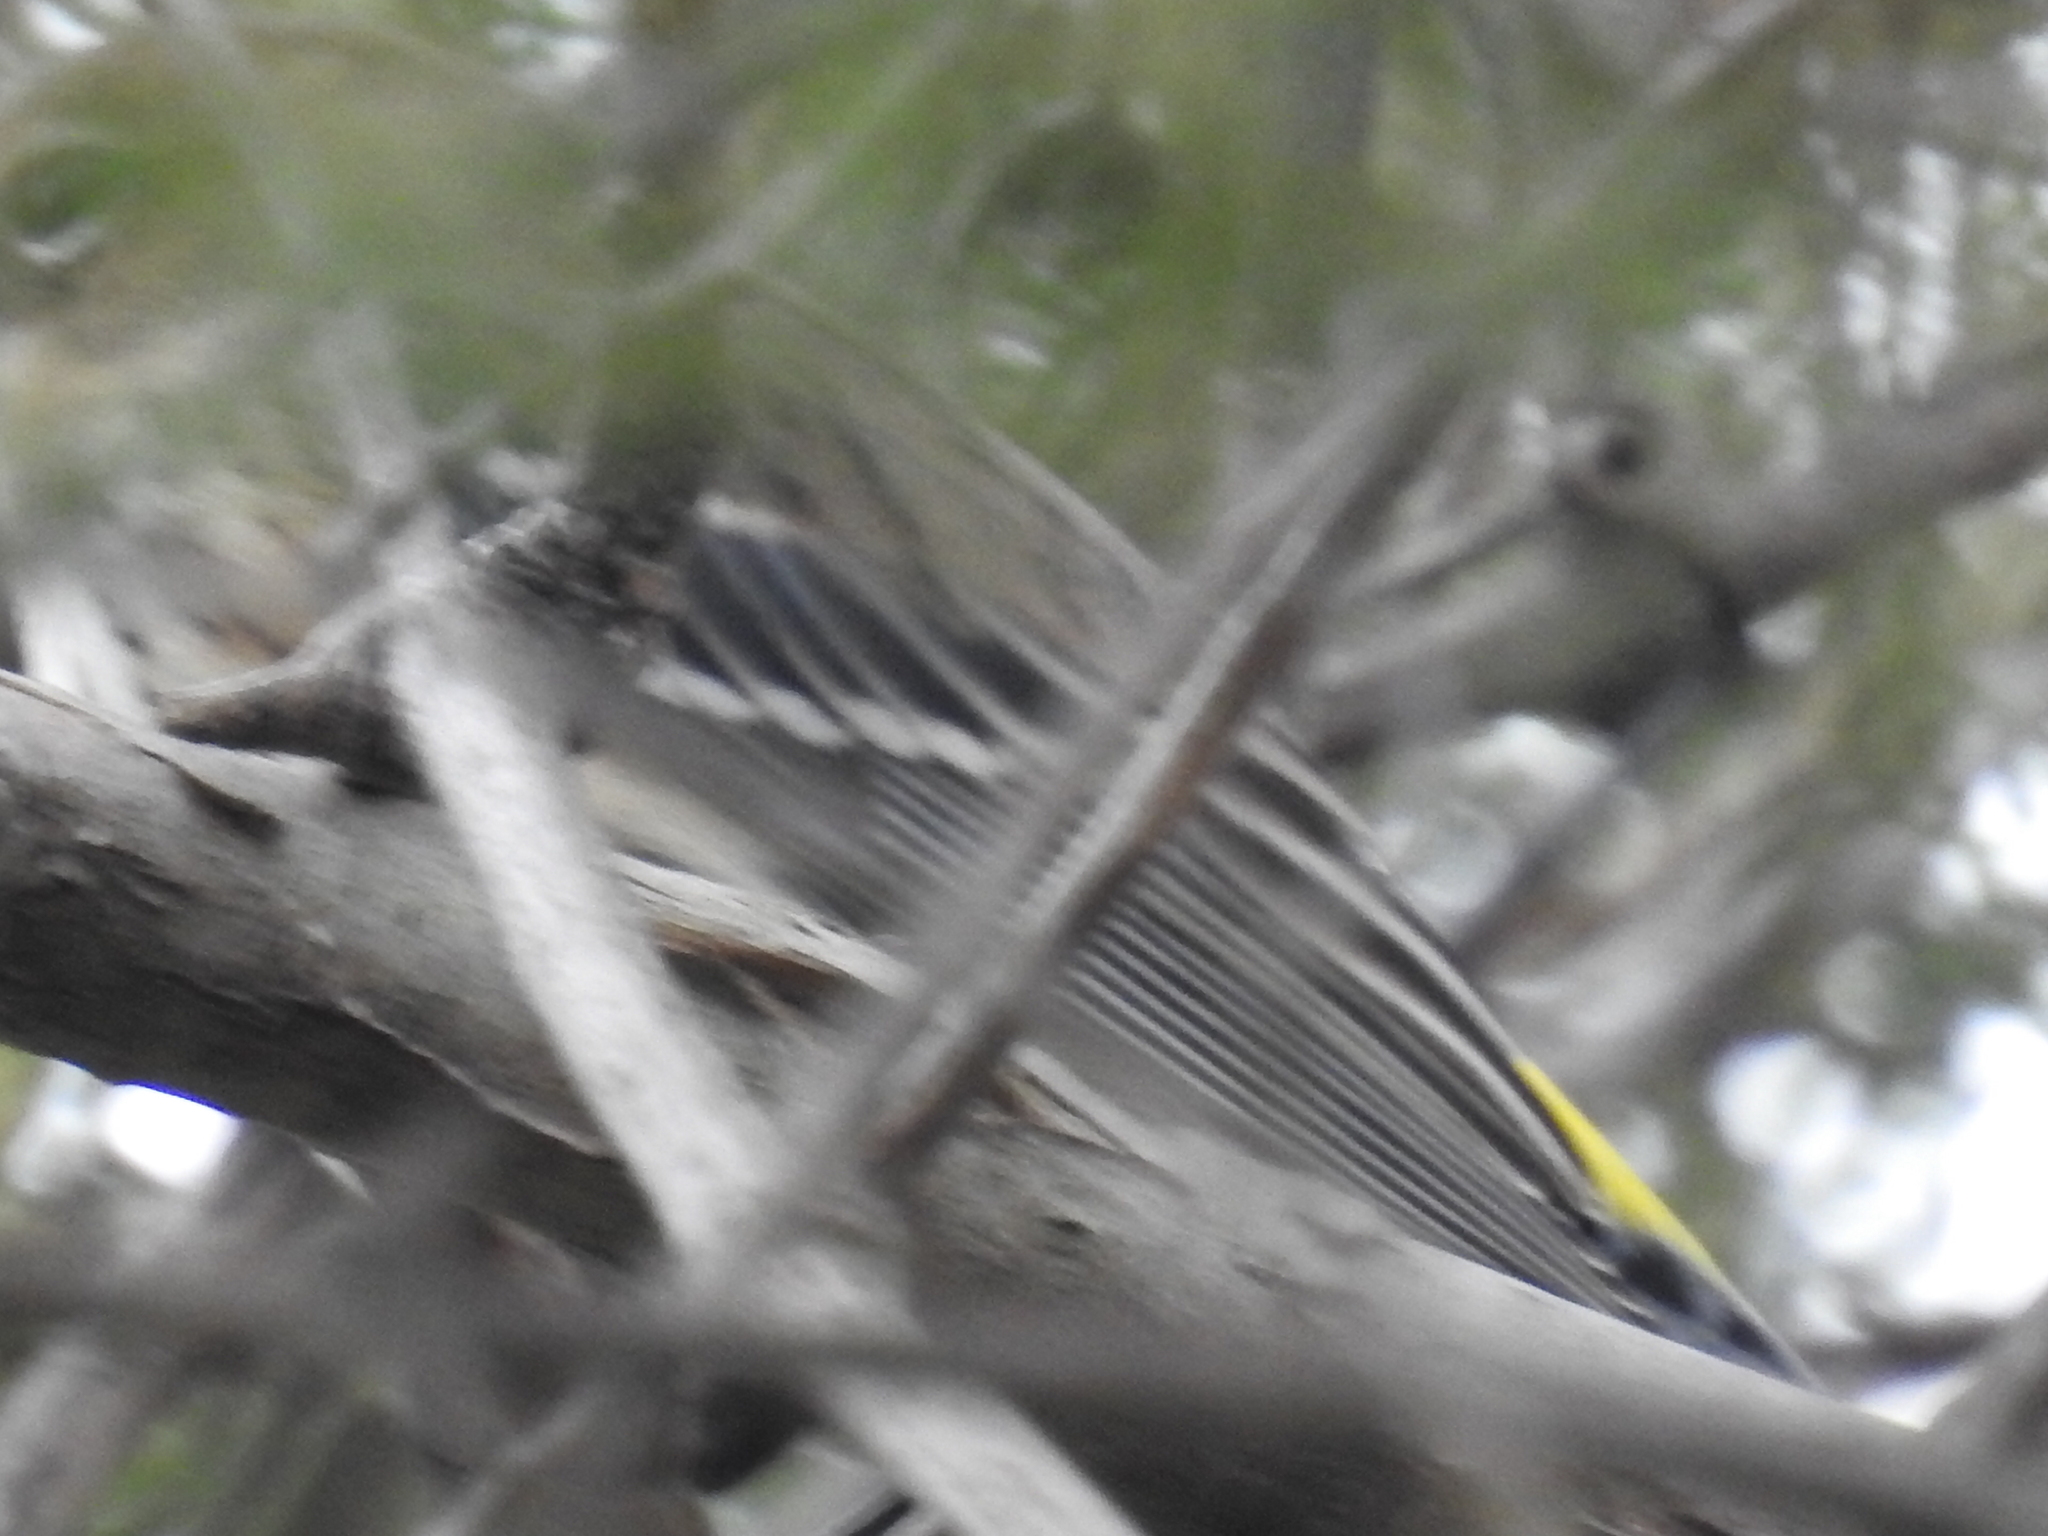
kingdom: Animalia
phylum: Chordata
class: Aves
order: Passeriformes
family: Parulidae
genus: Setophaga
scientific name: Setophaga coronata
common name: Myrtle warbler
